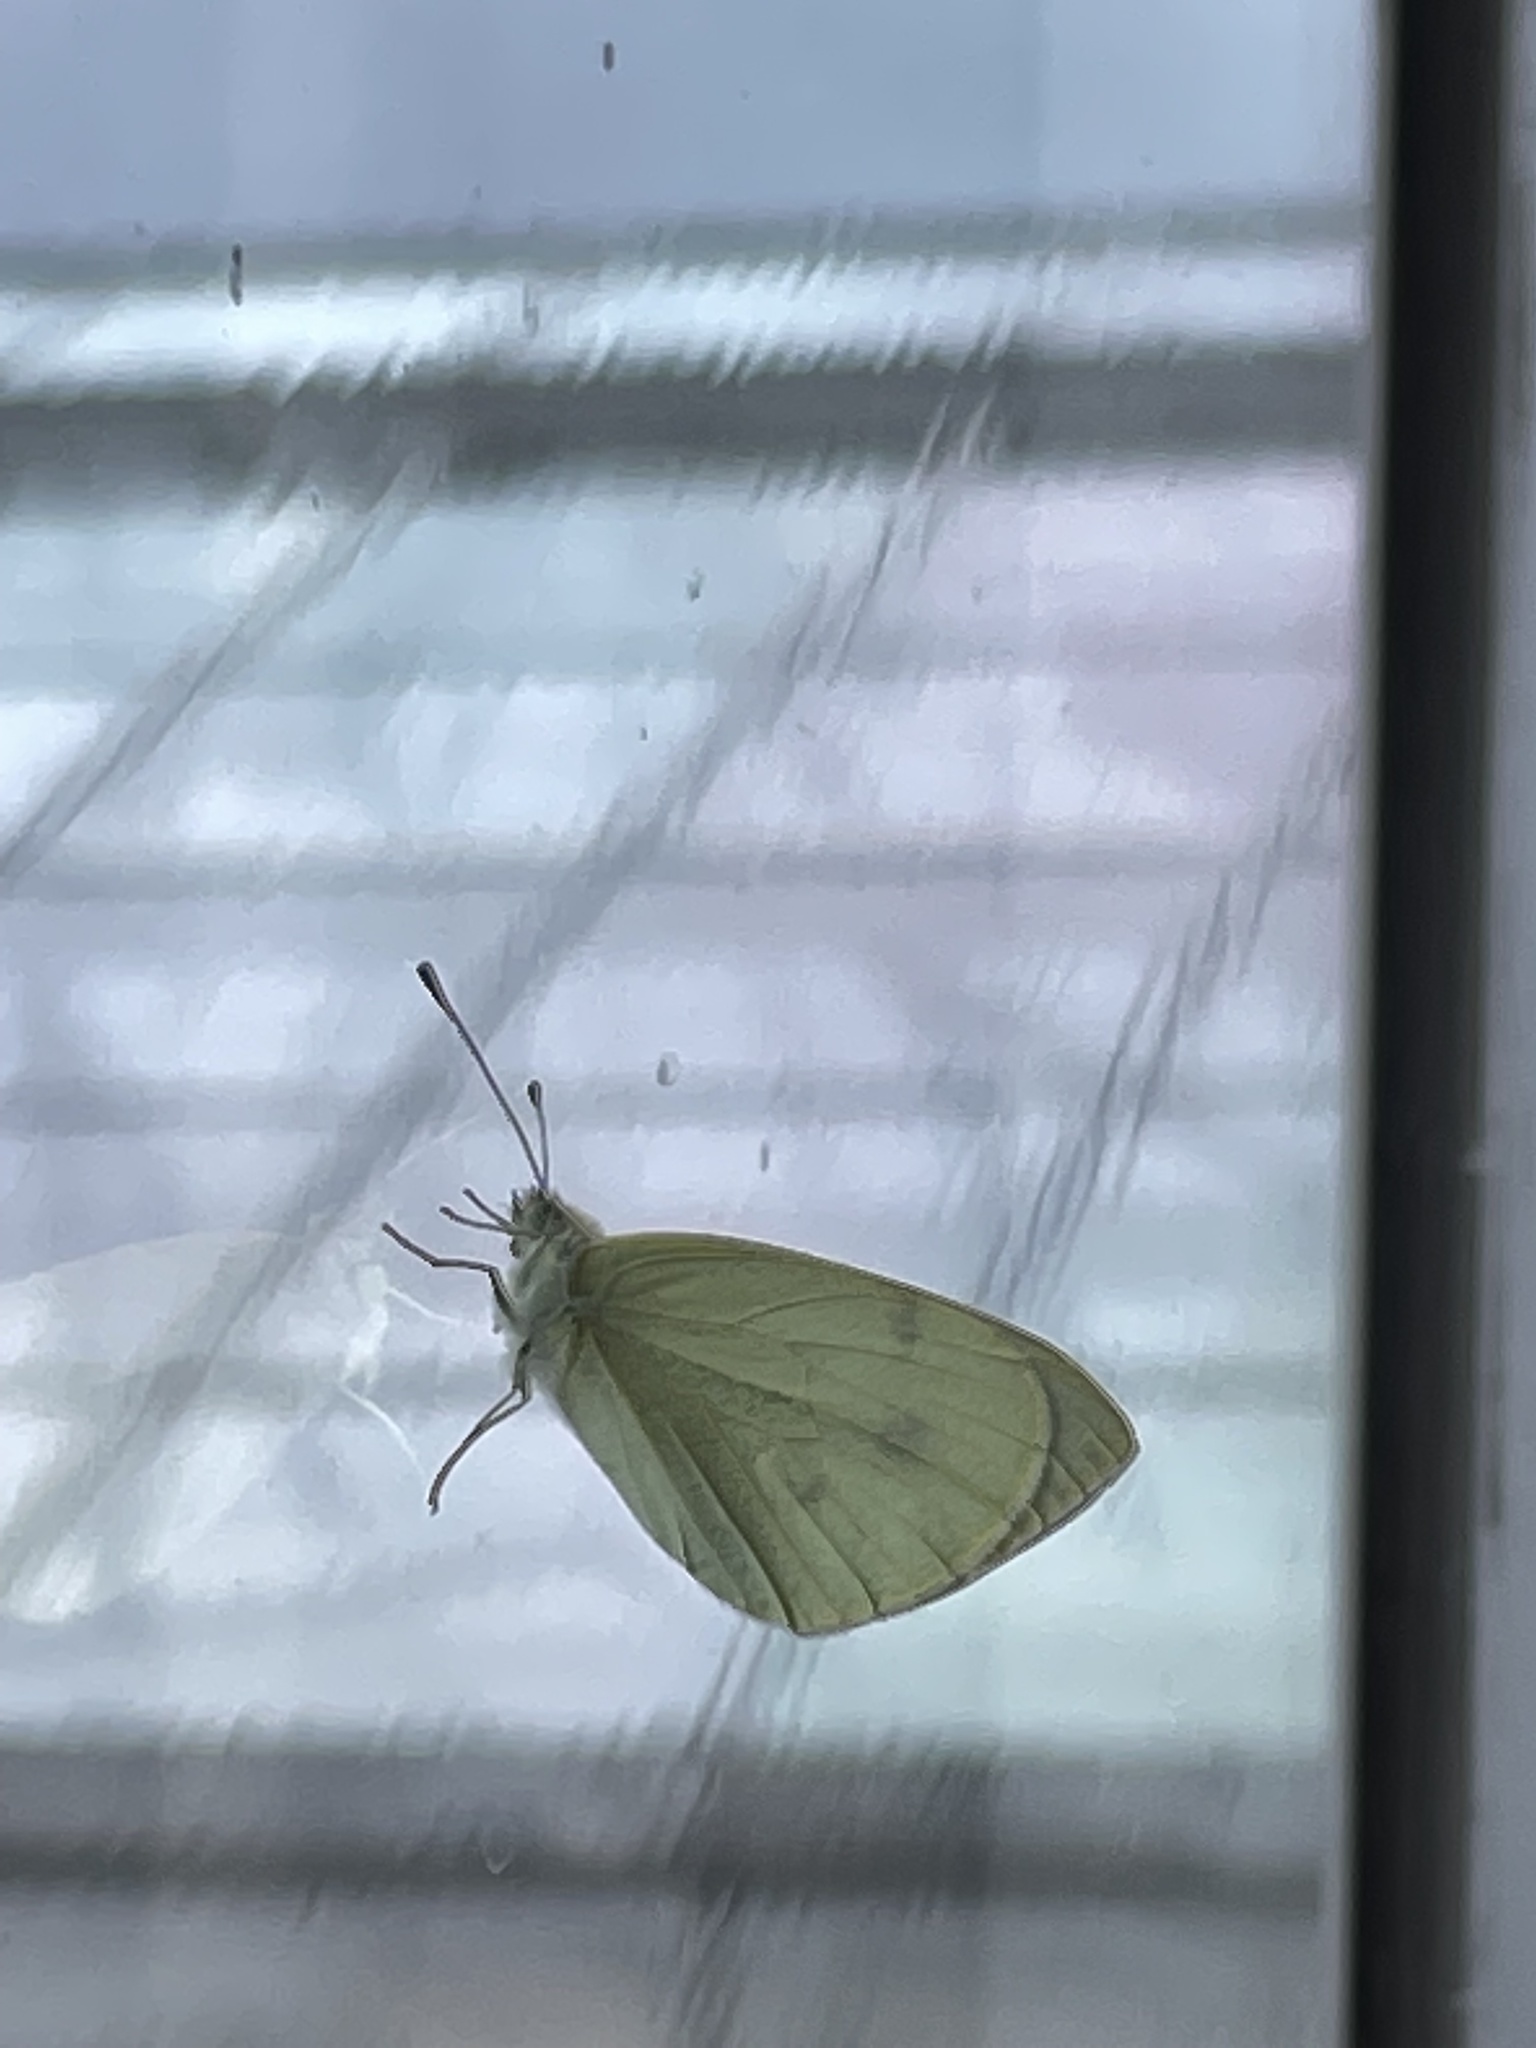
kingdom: Animalia
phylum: Arthropoda
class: Insecta
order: Lepidoptera
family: Pieridae
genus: Pieris
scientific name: Pieris rapae
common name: Small white
